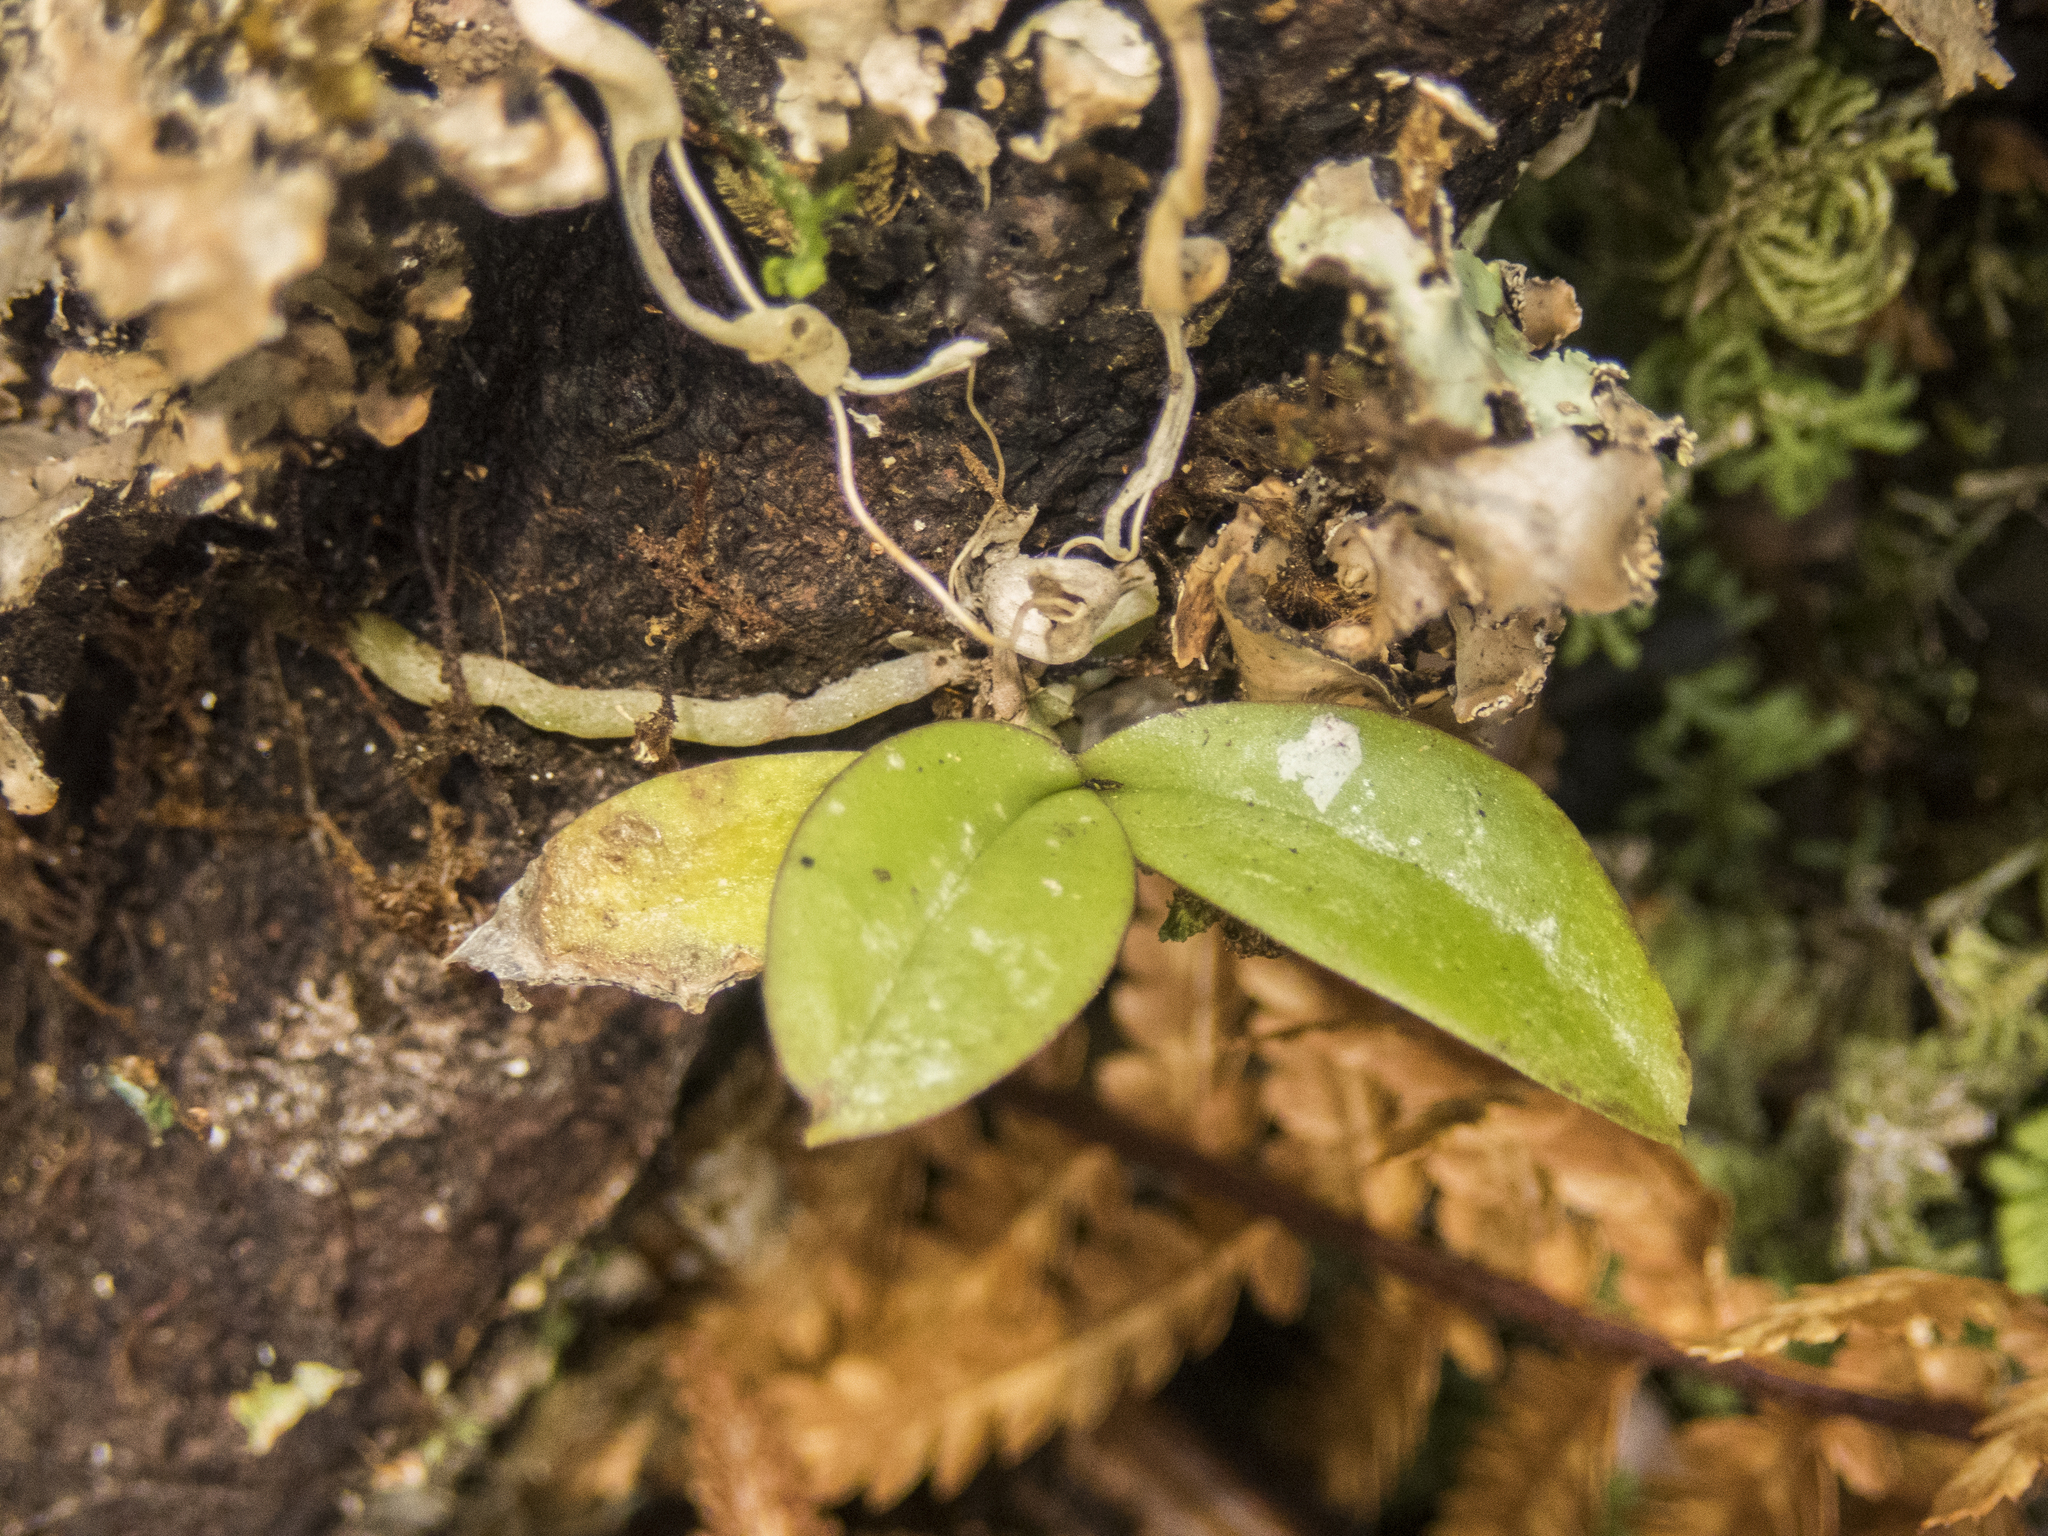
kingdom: Plantae
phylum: Tracheophyta
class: Liliopsida
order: Asparagales
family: Orchidaceae
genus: Drymoanthus
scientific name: Drymoanthus adversus
